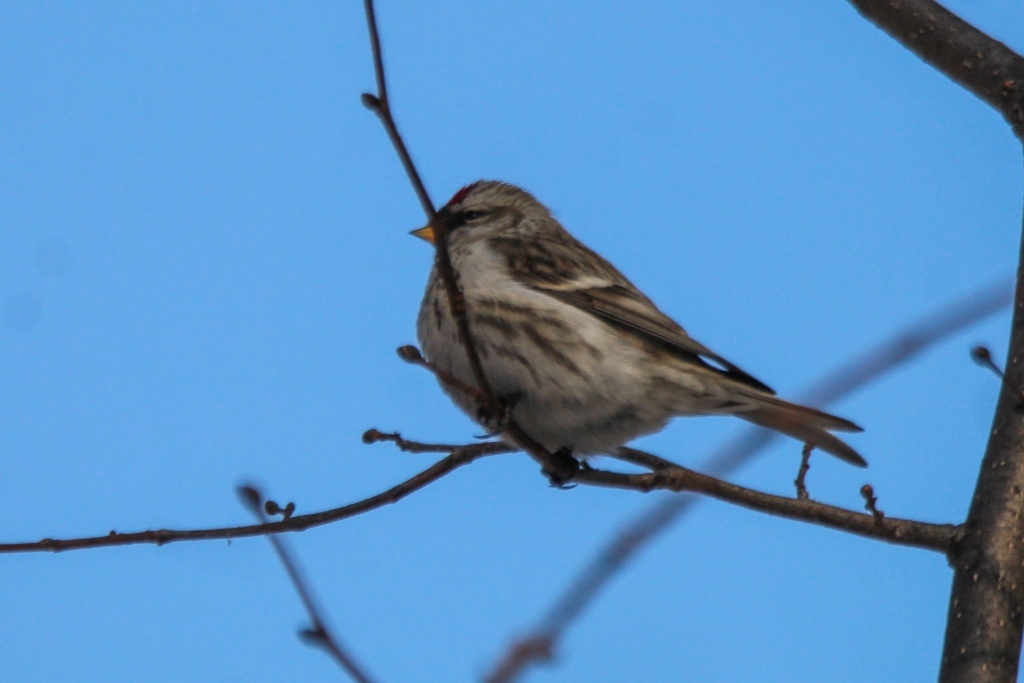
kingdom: Animalia
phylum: Chordata
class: Aves
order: Passeriformes
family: Fringillidae
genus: Acanthis
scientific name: Acanthis flammea
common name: Common redpoll
